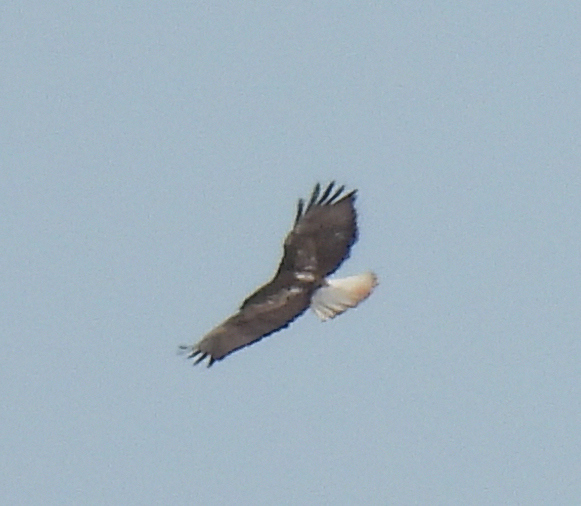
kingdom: Animalia
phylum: Chordata
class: Aves
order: Accipitriformes
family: Accipitridae
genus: Buteo
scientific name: Buteo jamaicensis
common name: Red-tailed hawk
